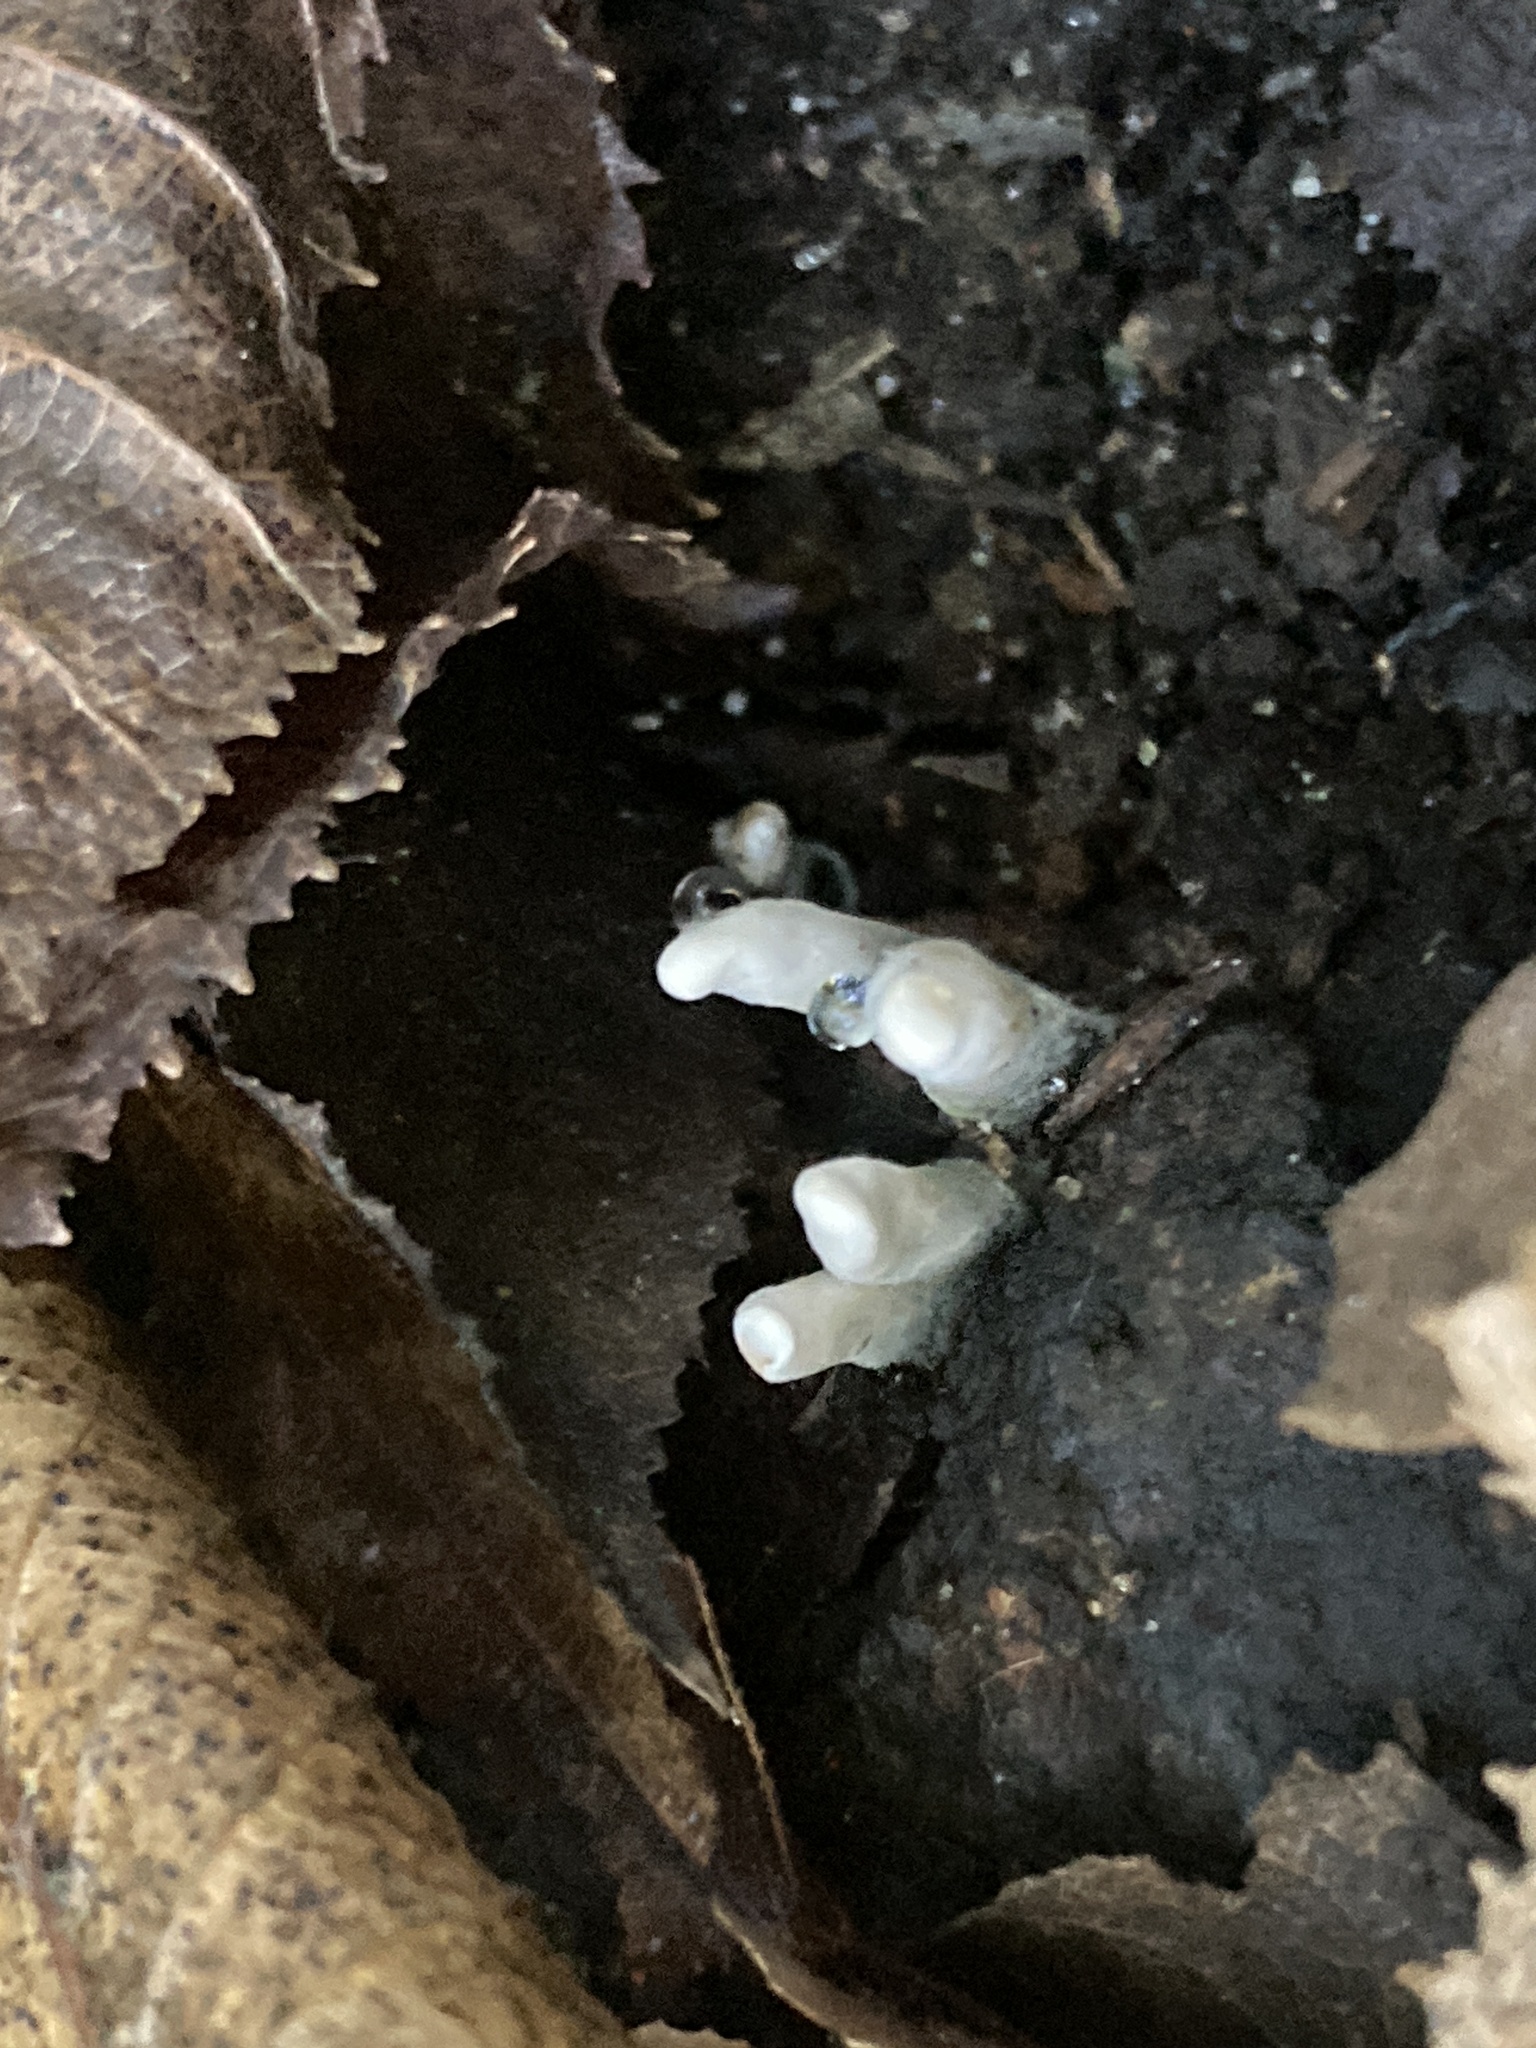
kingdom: Fungi
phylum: Ascomycota
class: Sordariomycetes
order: Xylariales
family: Xylariaceae
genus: Xylaria
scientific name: Xylaria hypoxylon
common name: Candle-snuff fungus
